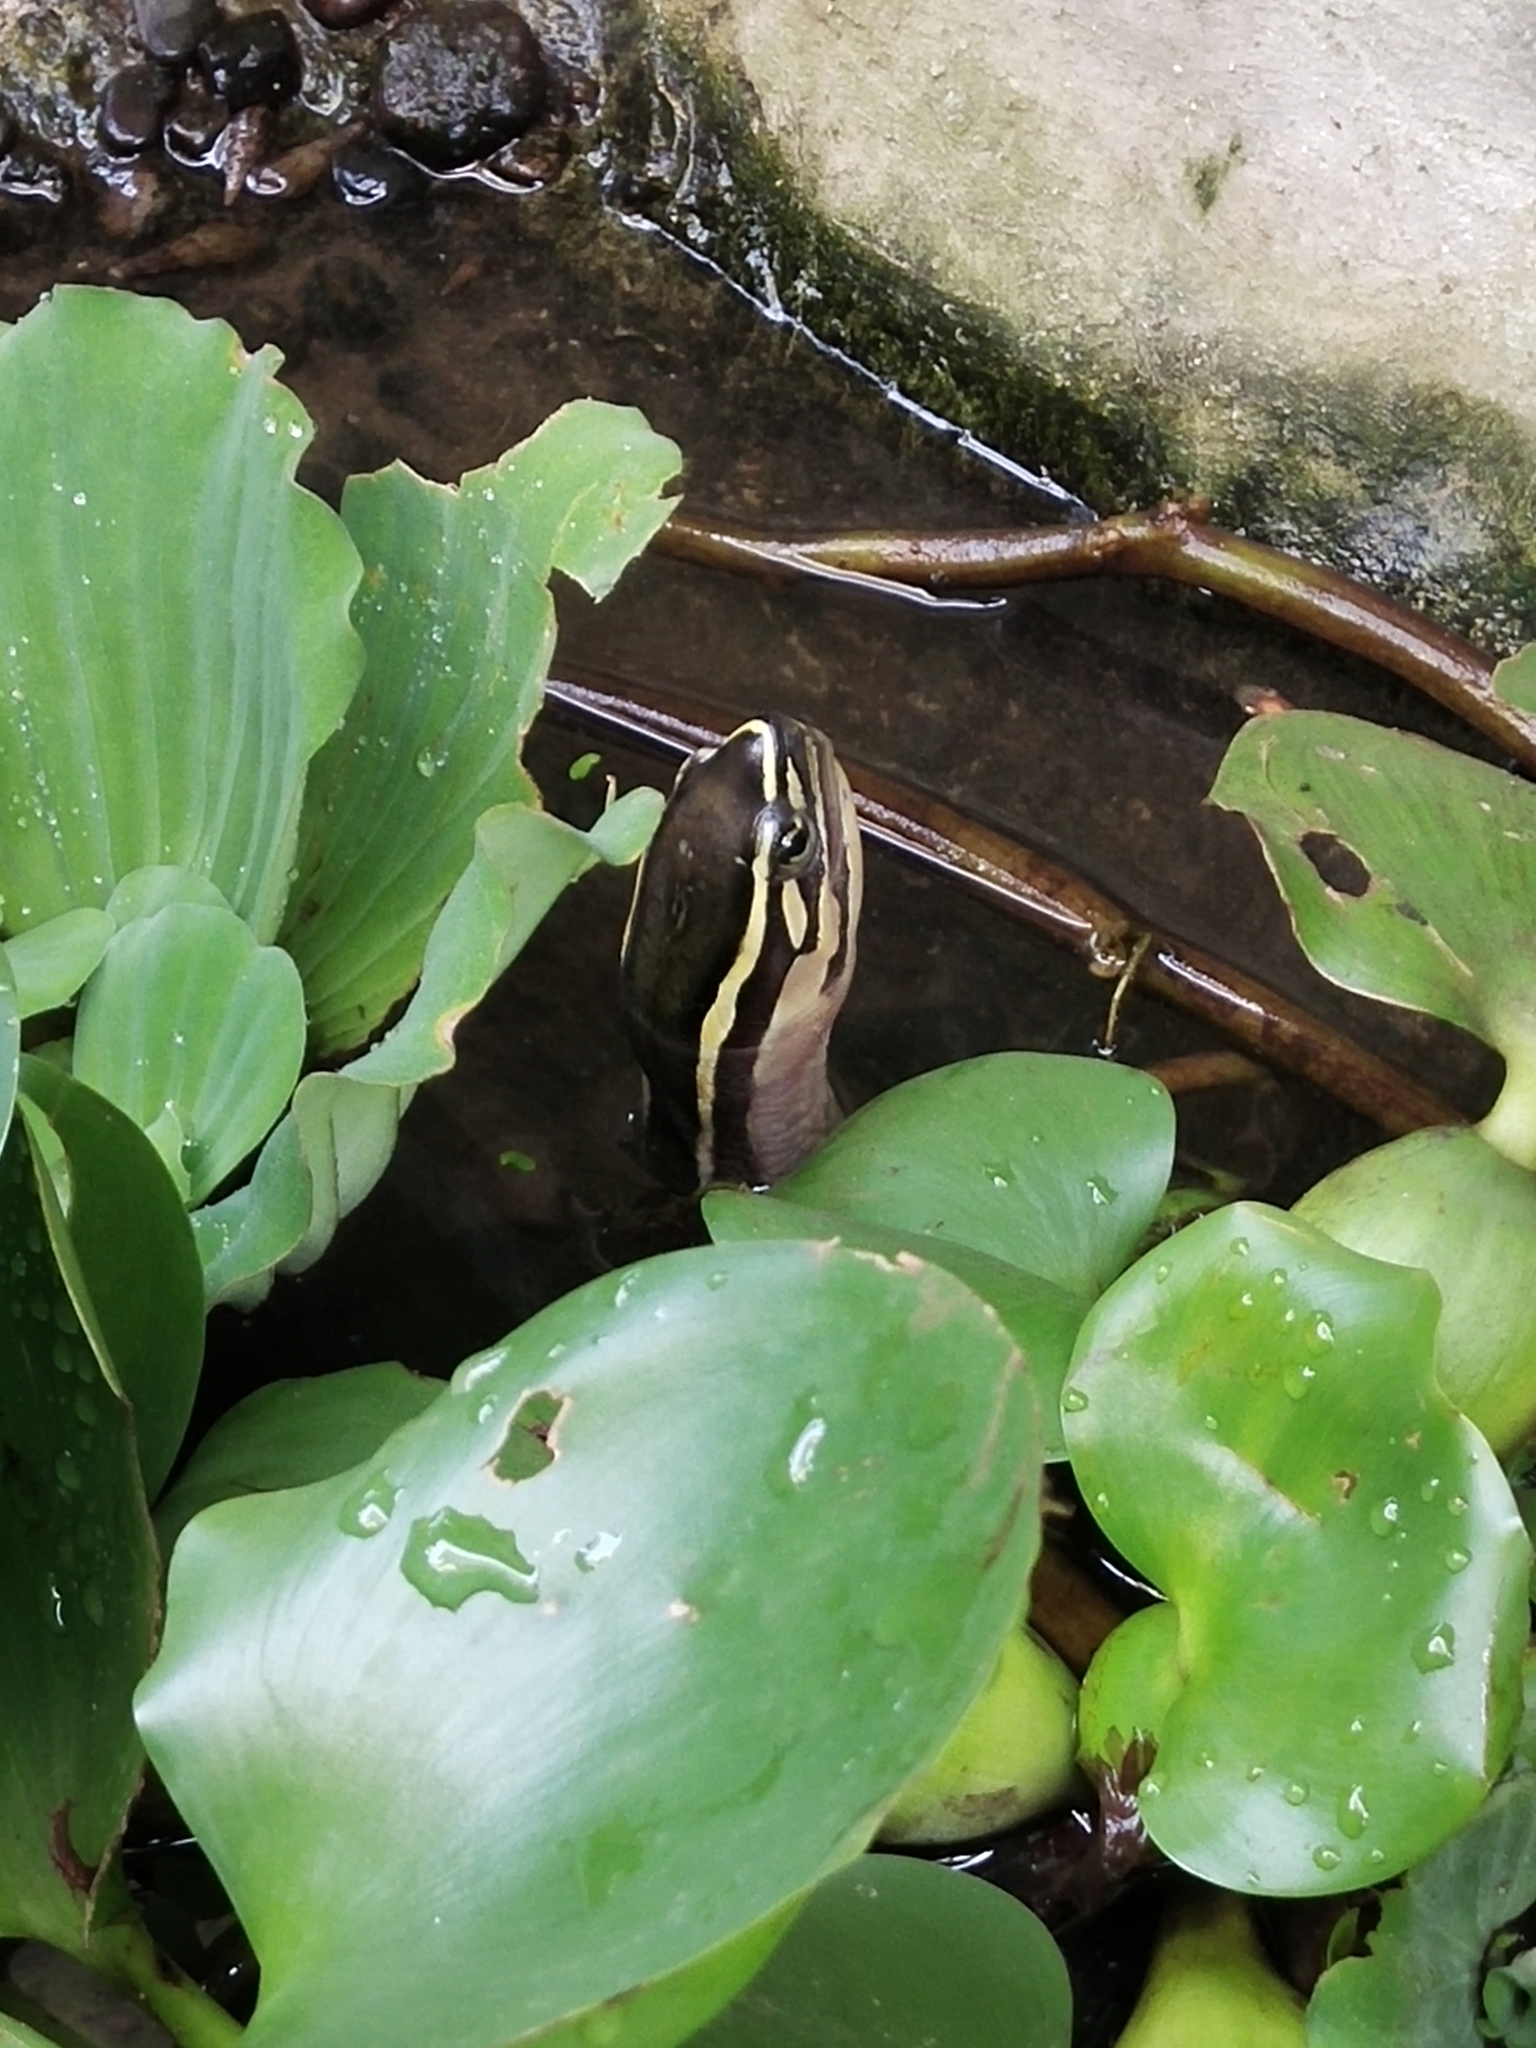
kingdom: Animalia
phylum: Chordata
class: Testudines
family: Geoemydidae
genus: Cuora
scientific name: Cuora
